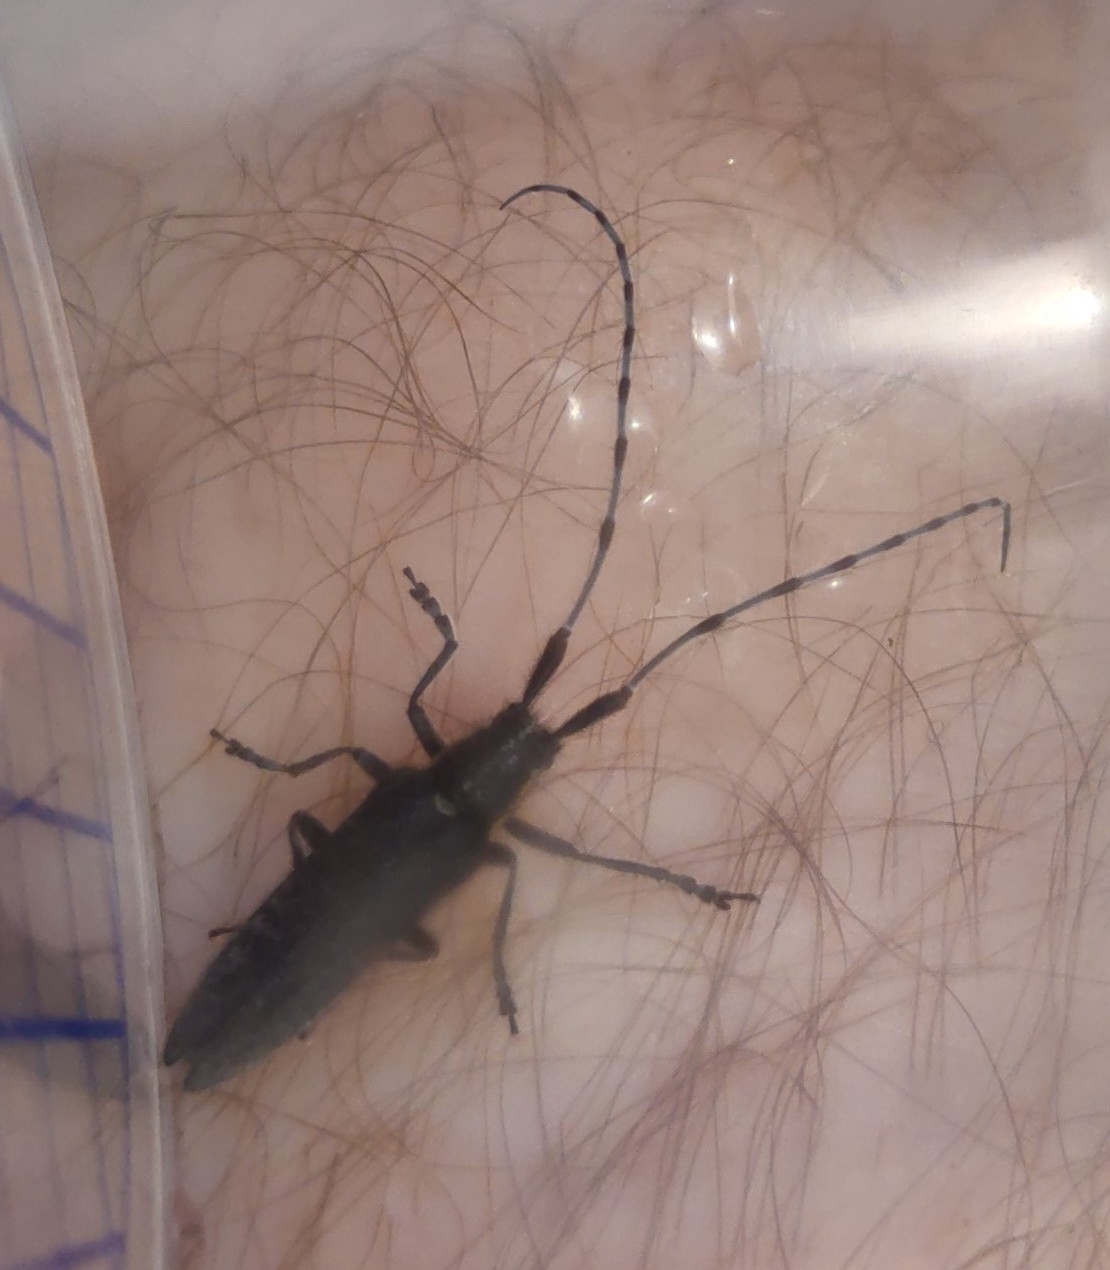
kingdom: Animalia
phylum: Arthropoda
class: Insecta
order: Coleoptera
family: Cerambycidae
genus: Agapanthia
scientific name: Agapanthia villosoviridescens
